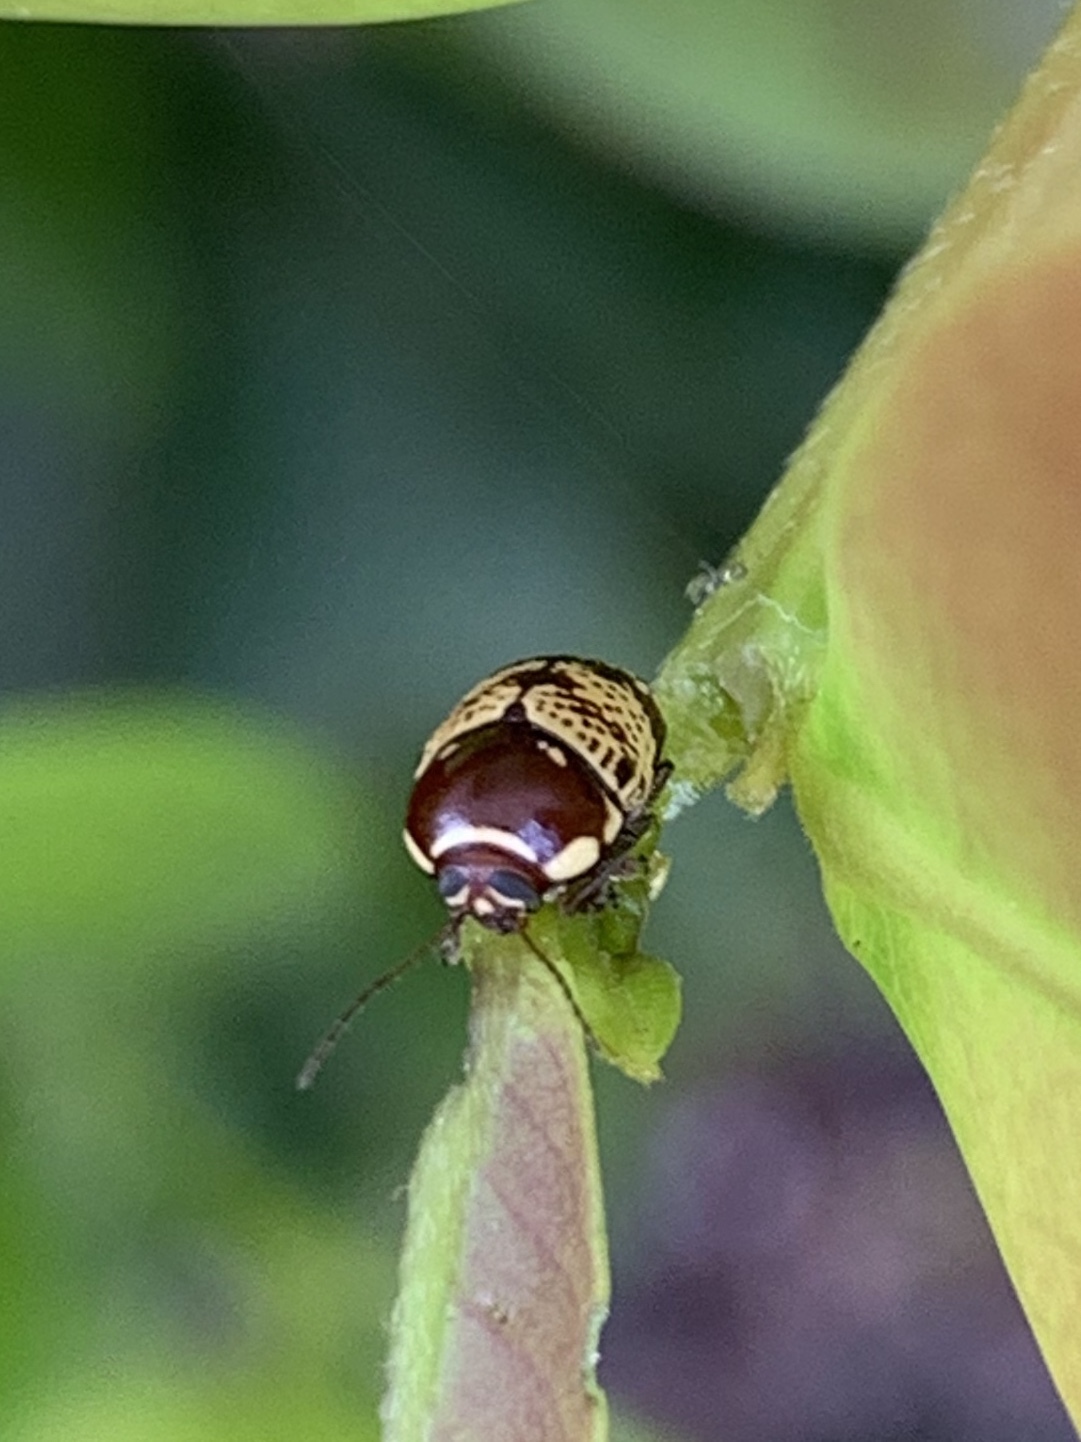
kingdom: Animalia
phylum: Arthropoda
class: Insecta
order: Coleoptera
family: Chrysomelidae
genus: Cryptocephalus
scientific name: Cryptocephalus irroratus
